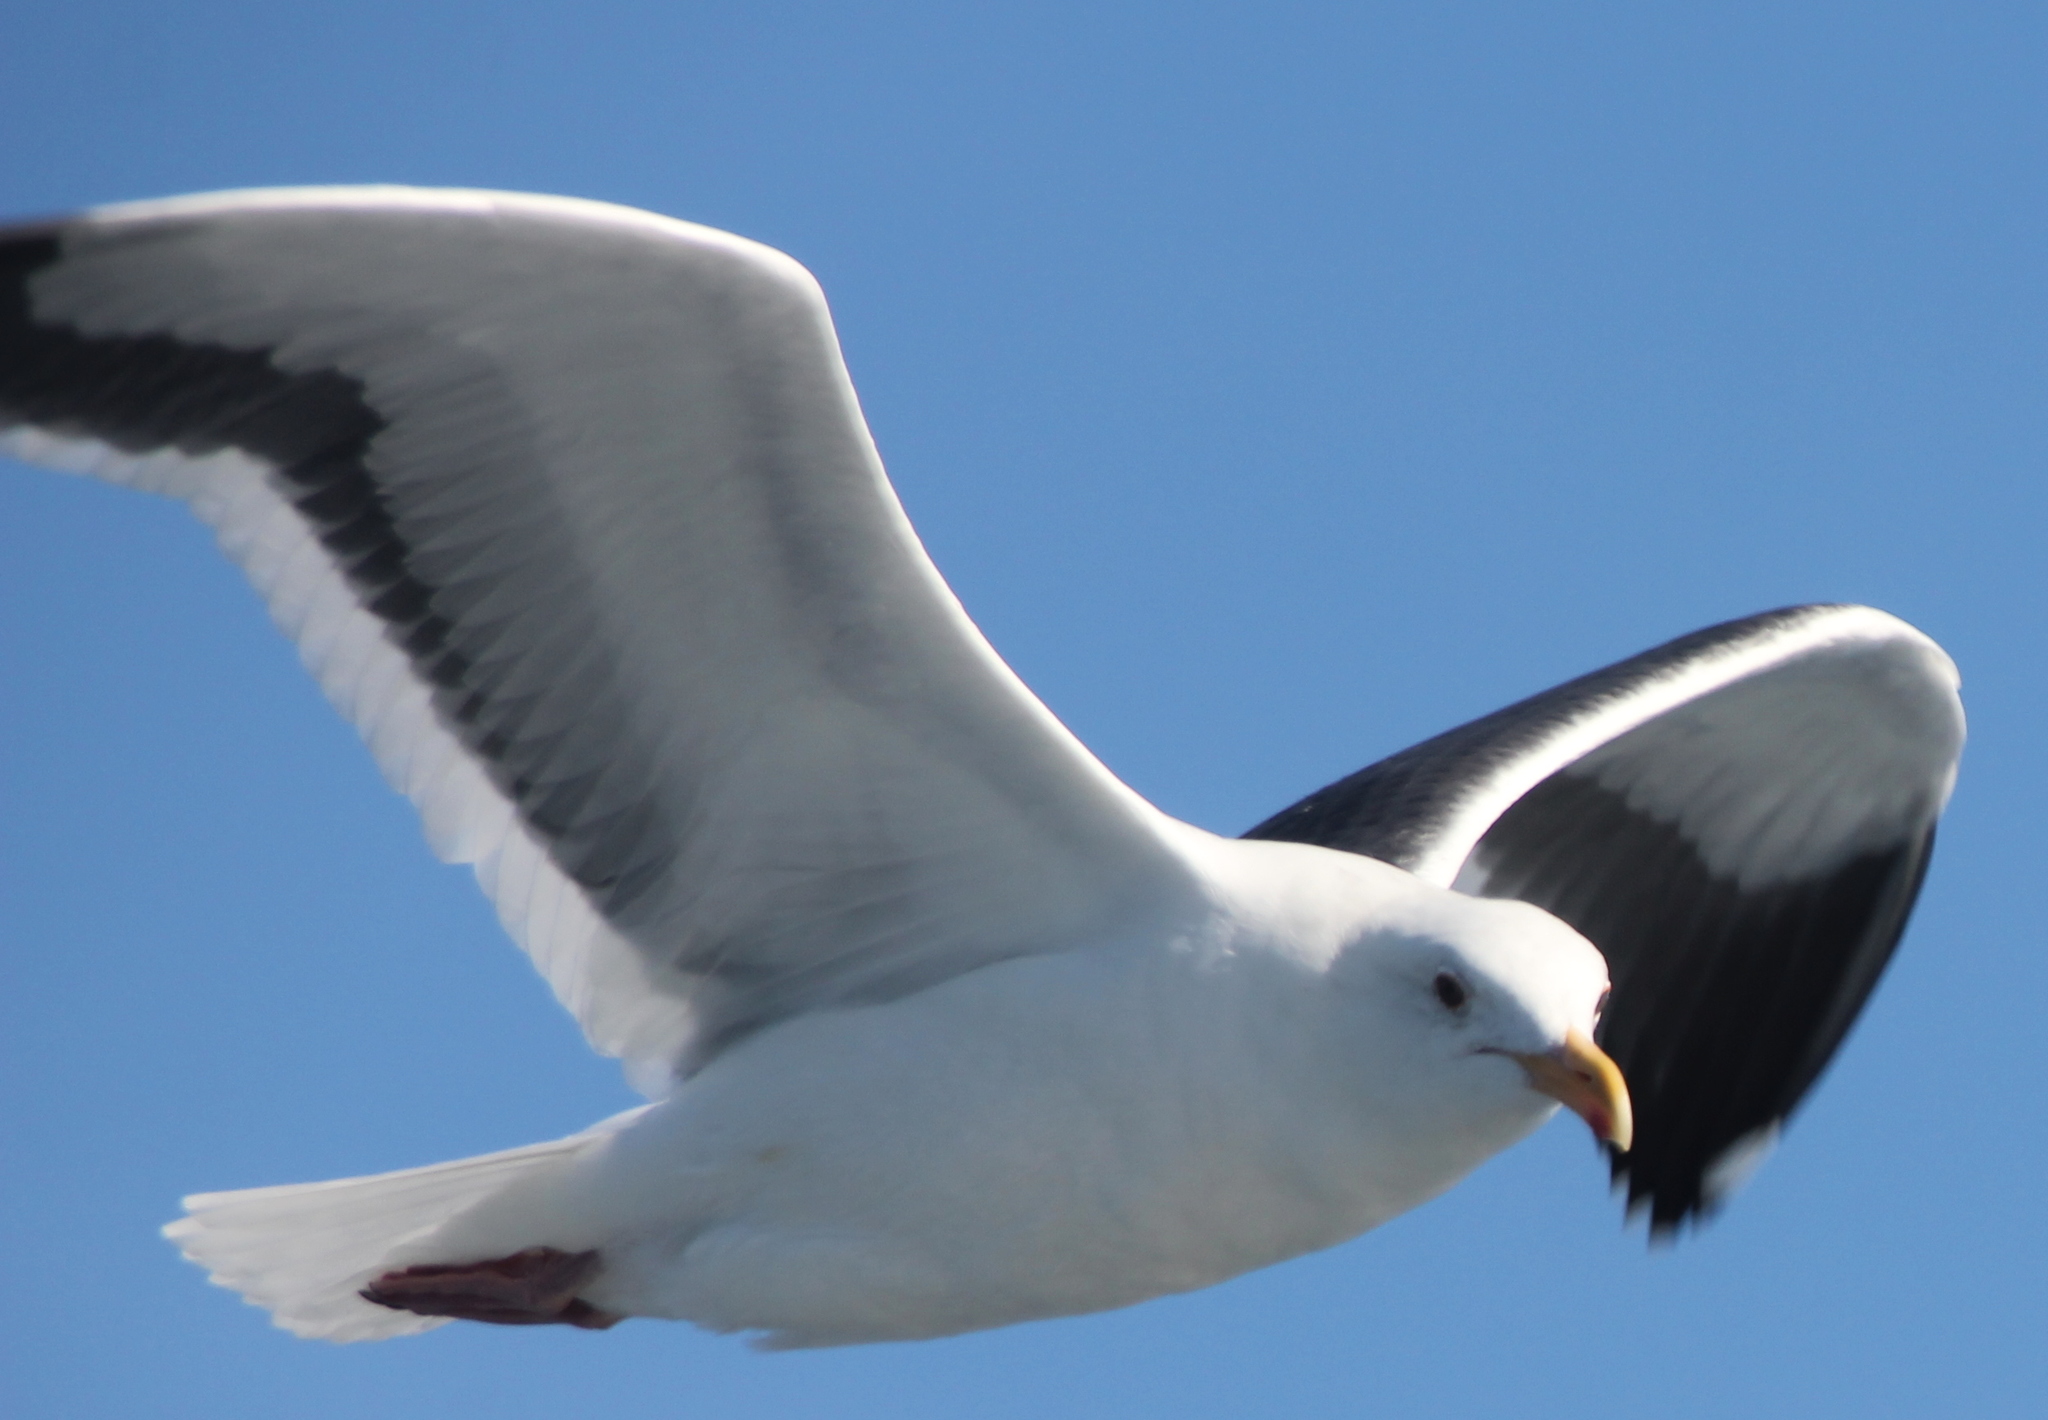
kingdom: Animalia
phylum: Chordata
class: Aves
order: Charadriiformes
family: Laridae
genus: Larus
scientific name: Larus occidentalis
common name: Western gull
